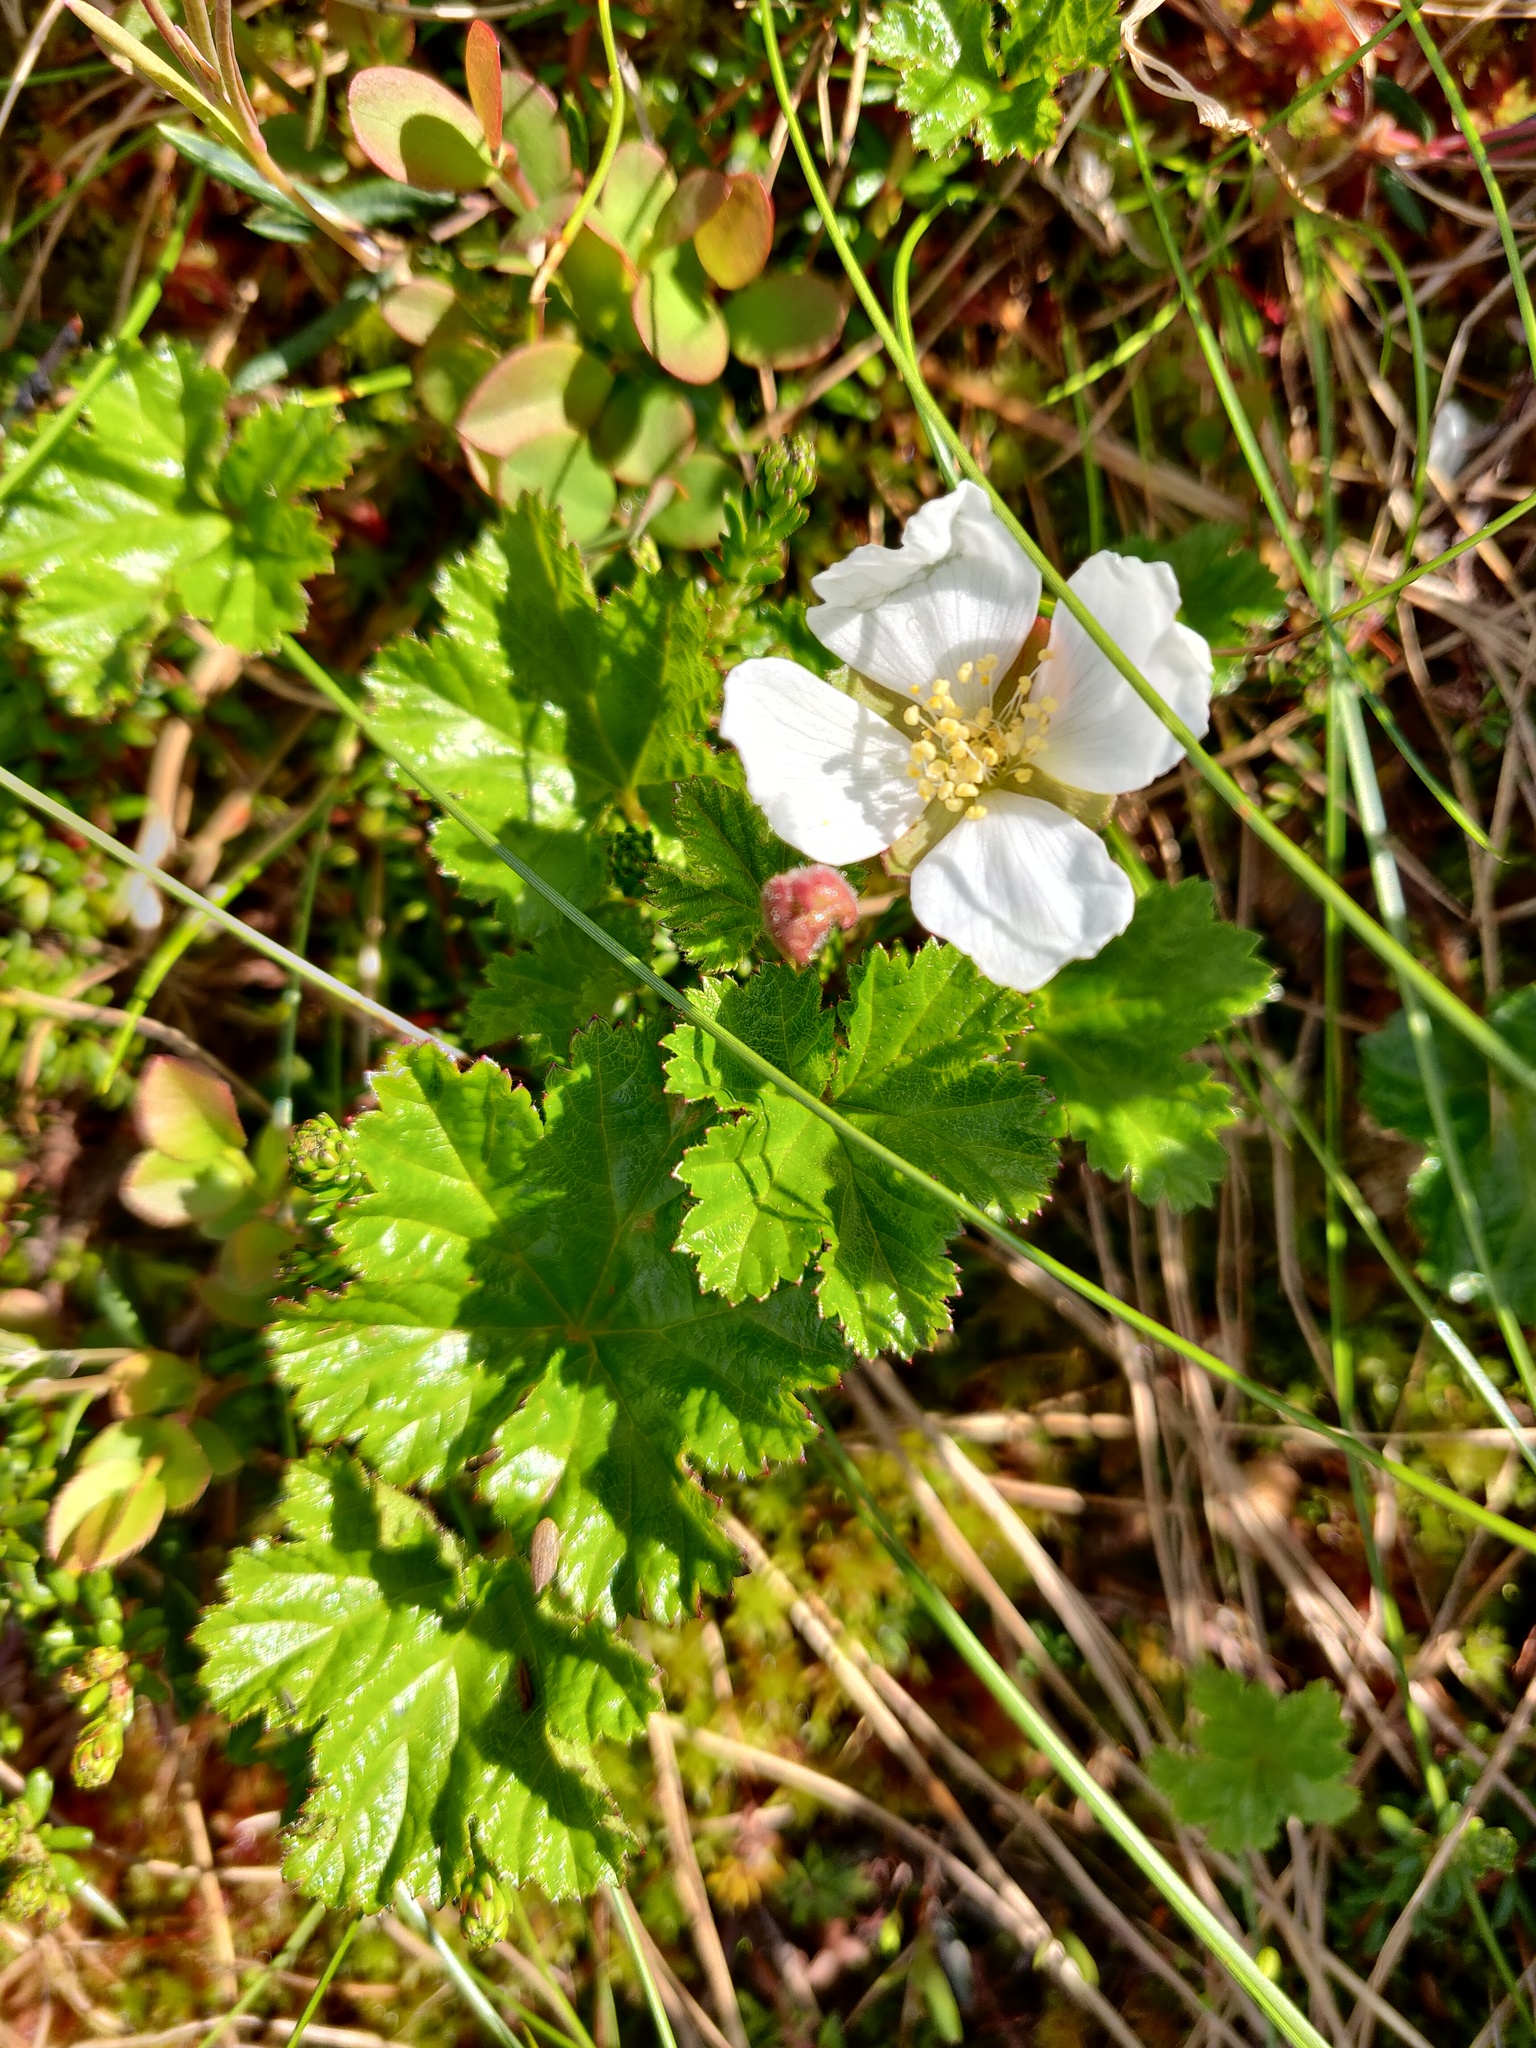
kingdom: Plantae
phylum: Tracheophyta
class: Magnoliopsida
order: Rosales
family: Rosaceae
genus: Rubus
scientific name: Rubus chamaemorus
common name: Cloudberry
